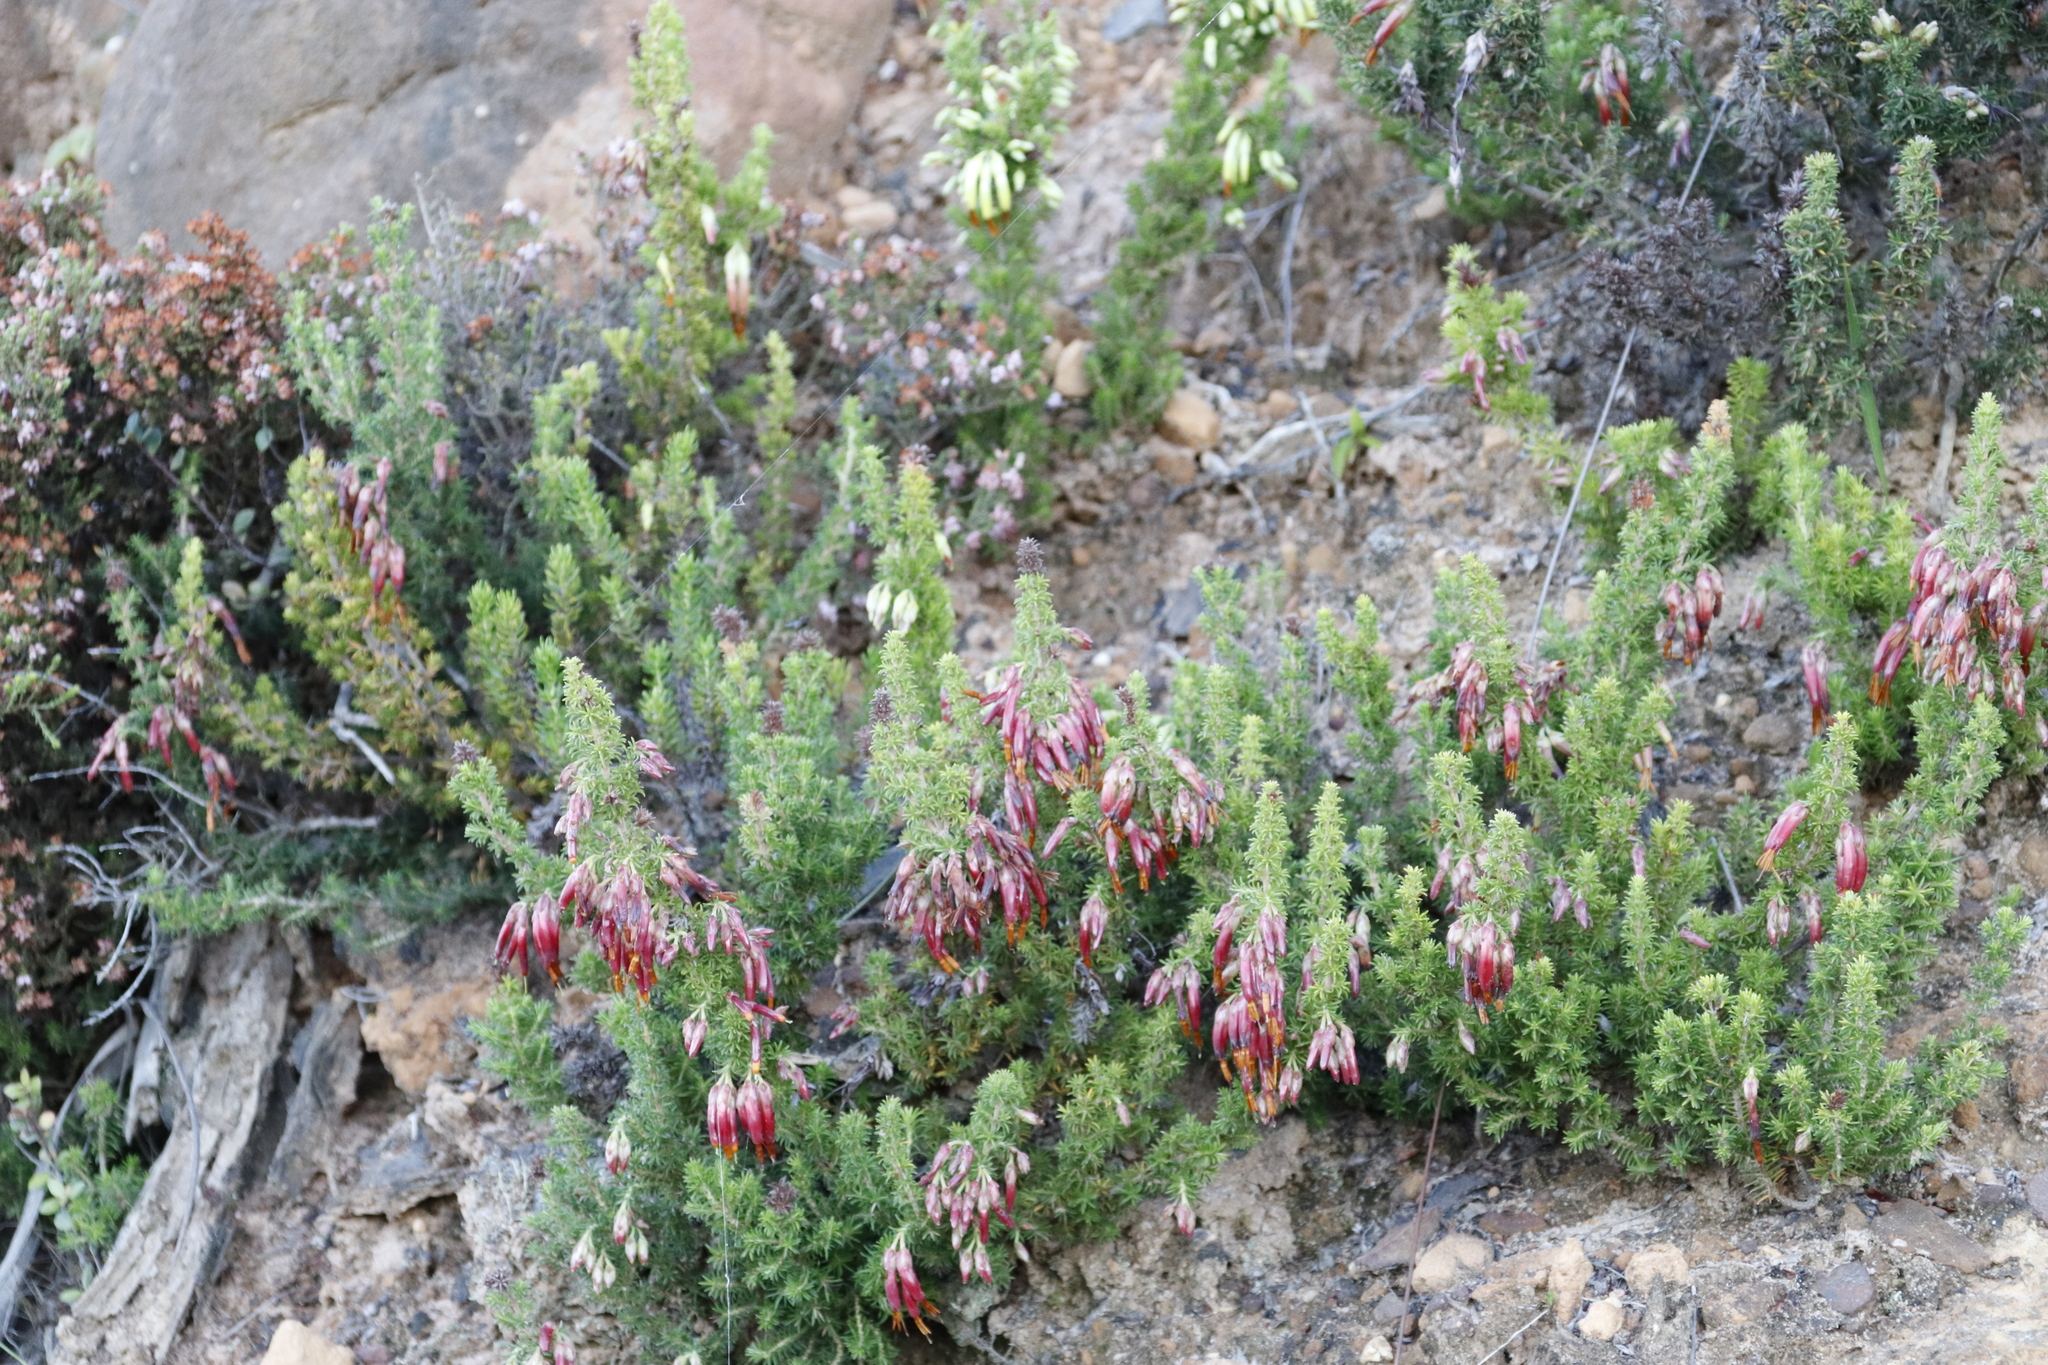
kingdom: Plantae
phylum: Tracheophyta
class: Magnoliopsida
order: Ericales
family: Ericaceae
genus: Erica
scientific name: Erica coccinea
